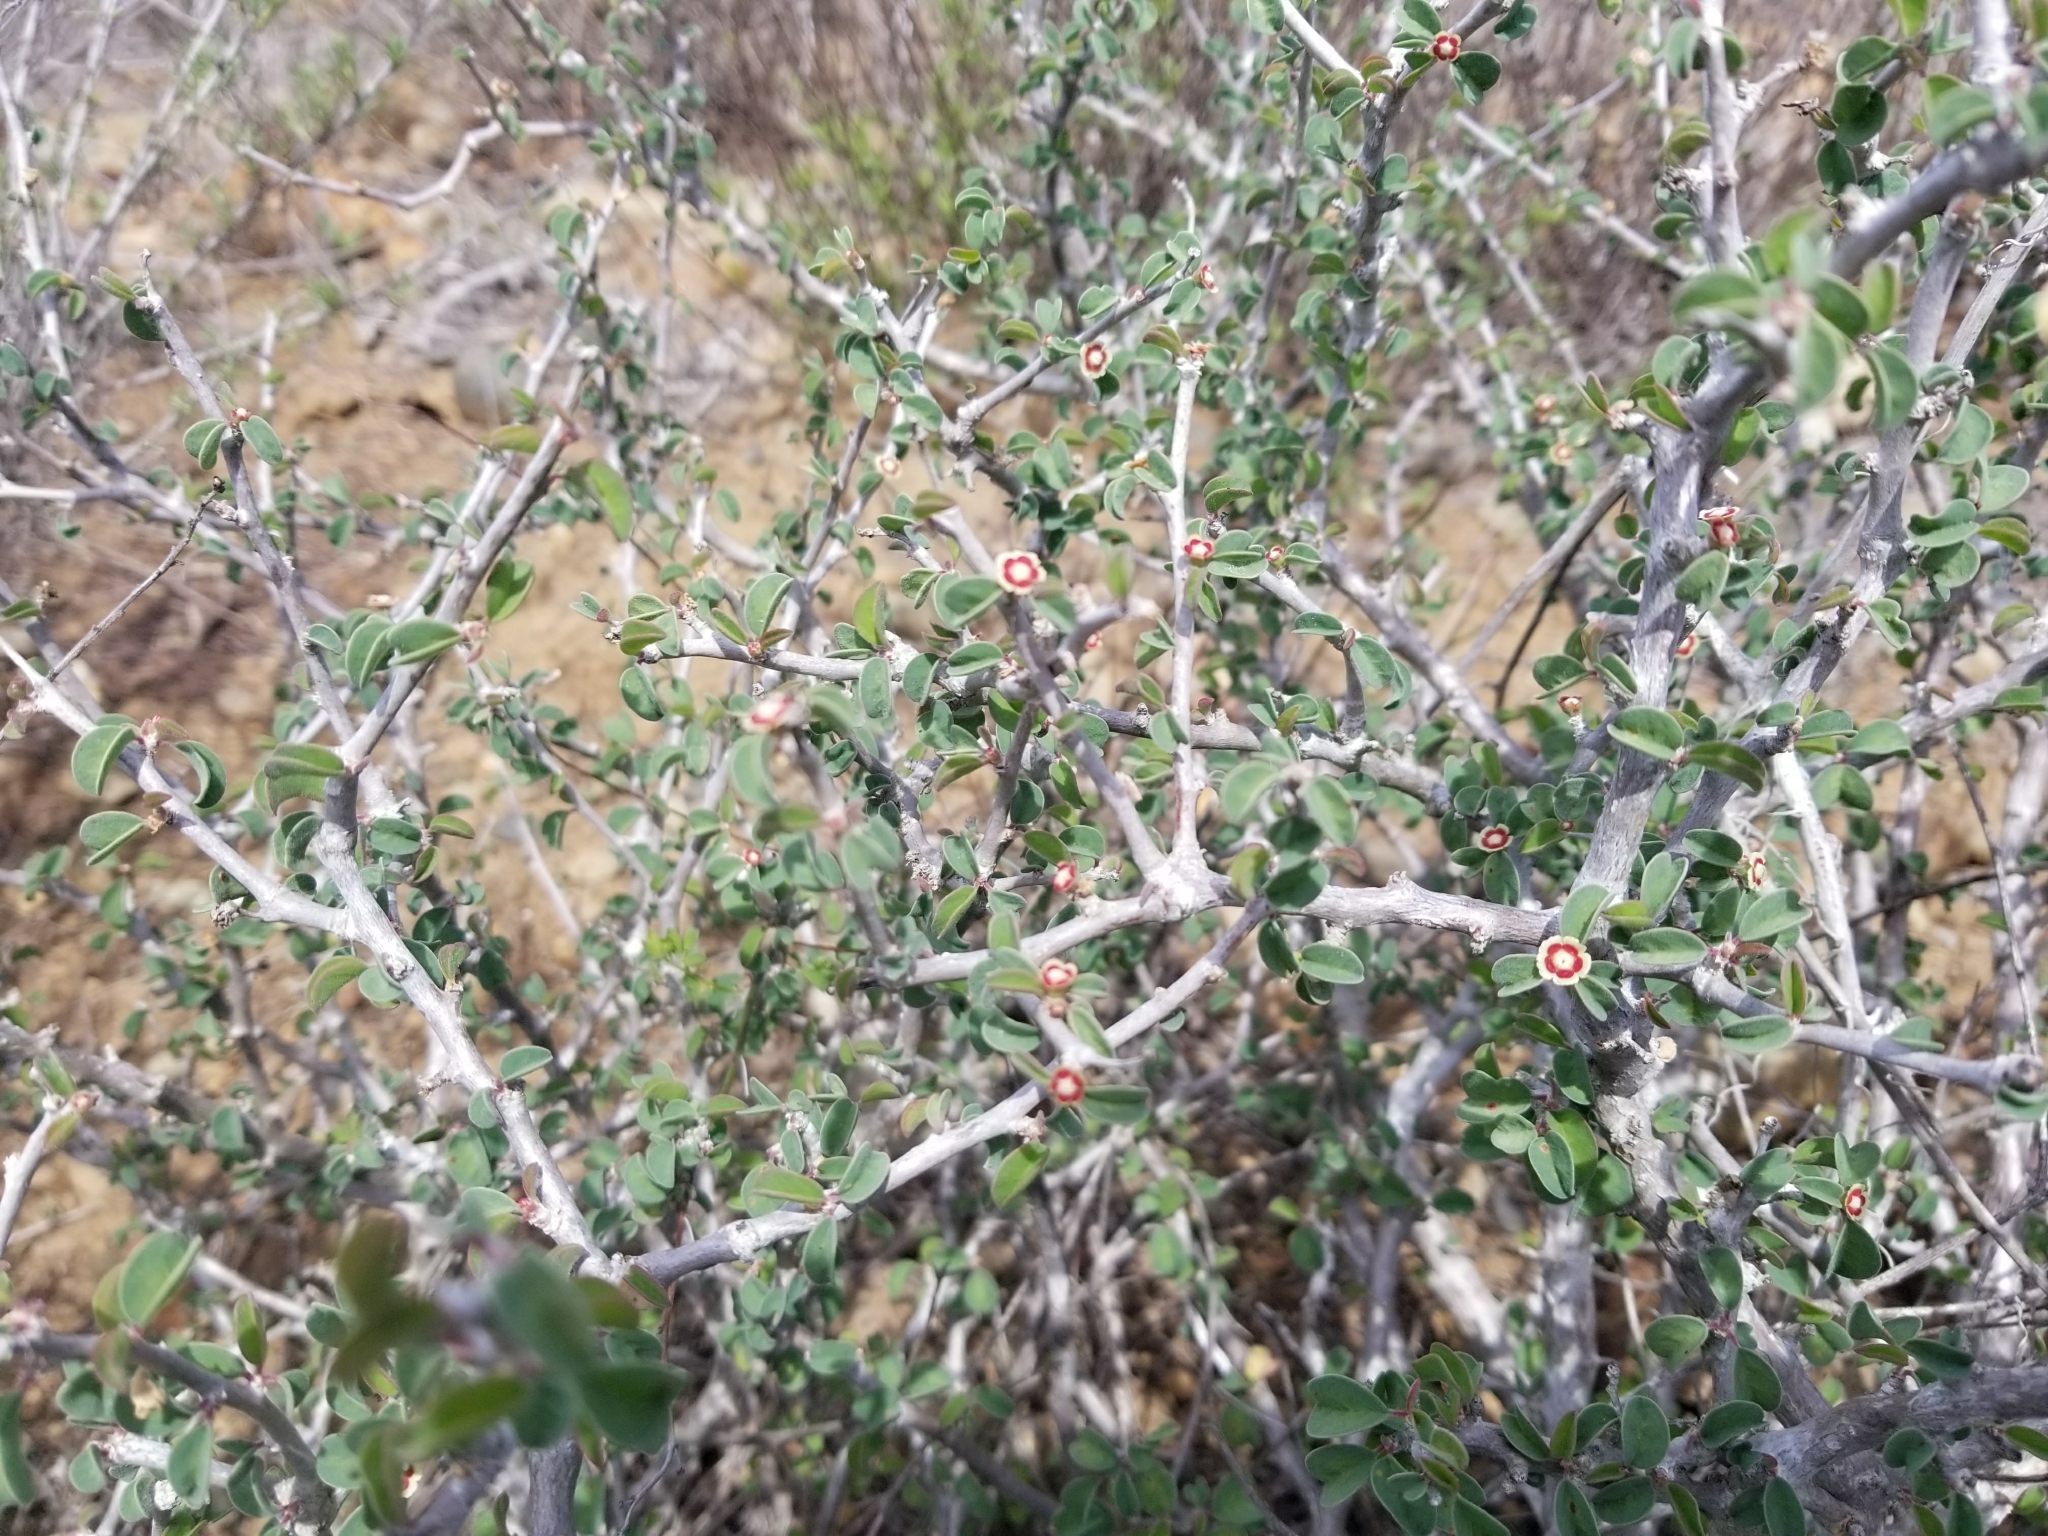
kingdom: Plantae
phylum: Tracheophyta
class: Magnoliopsida
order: Malpighiales
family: Euphorbiaceae
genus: Euphorbia
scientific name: Euphorbia misera
